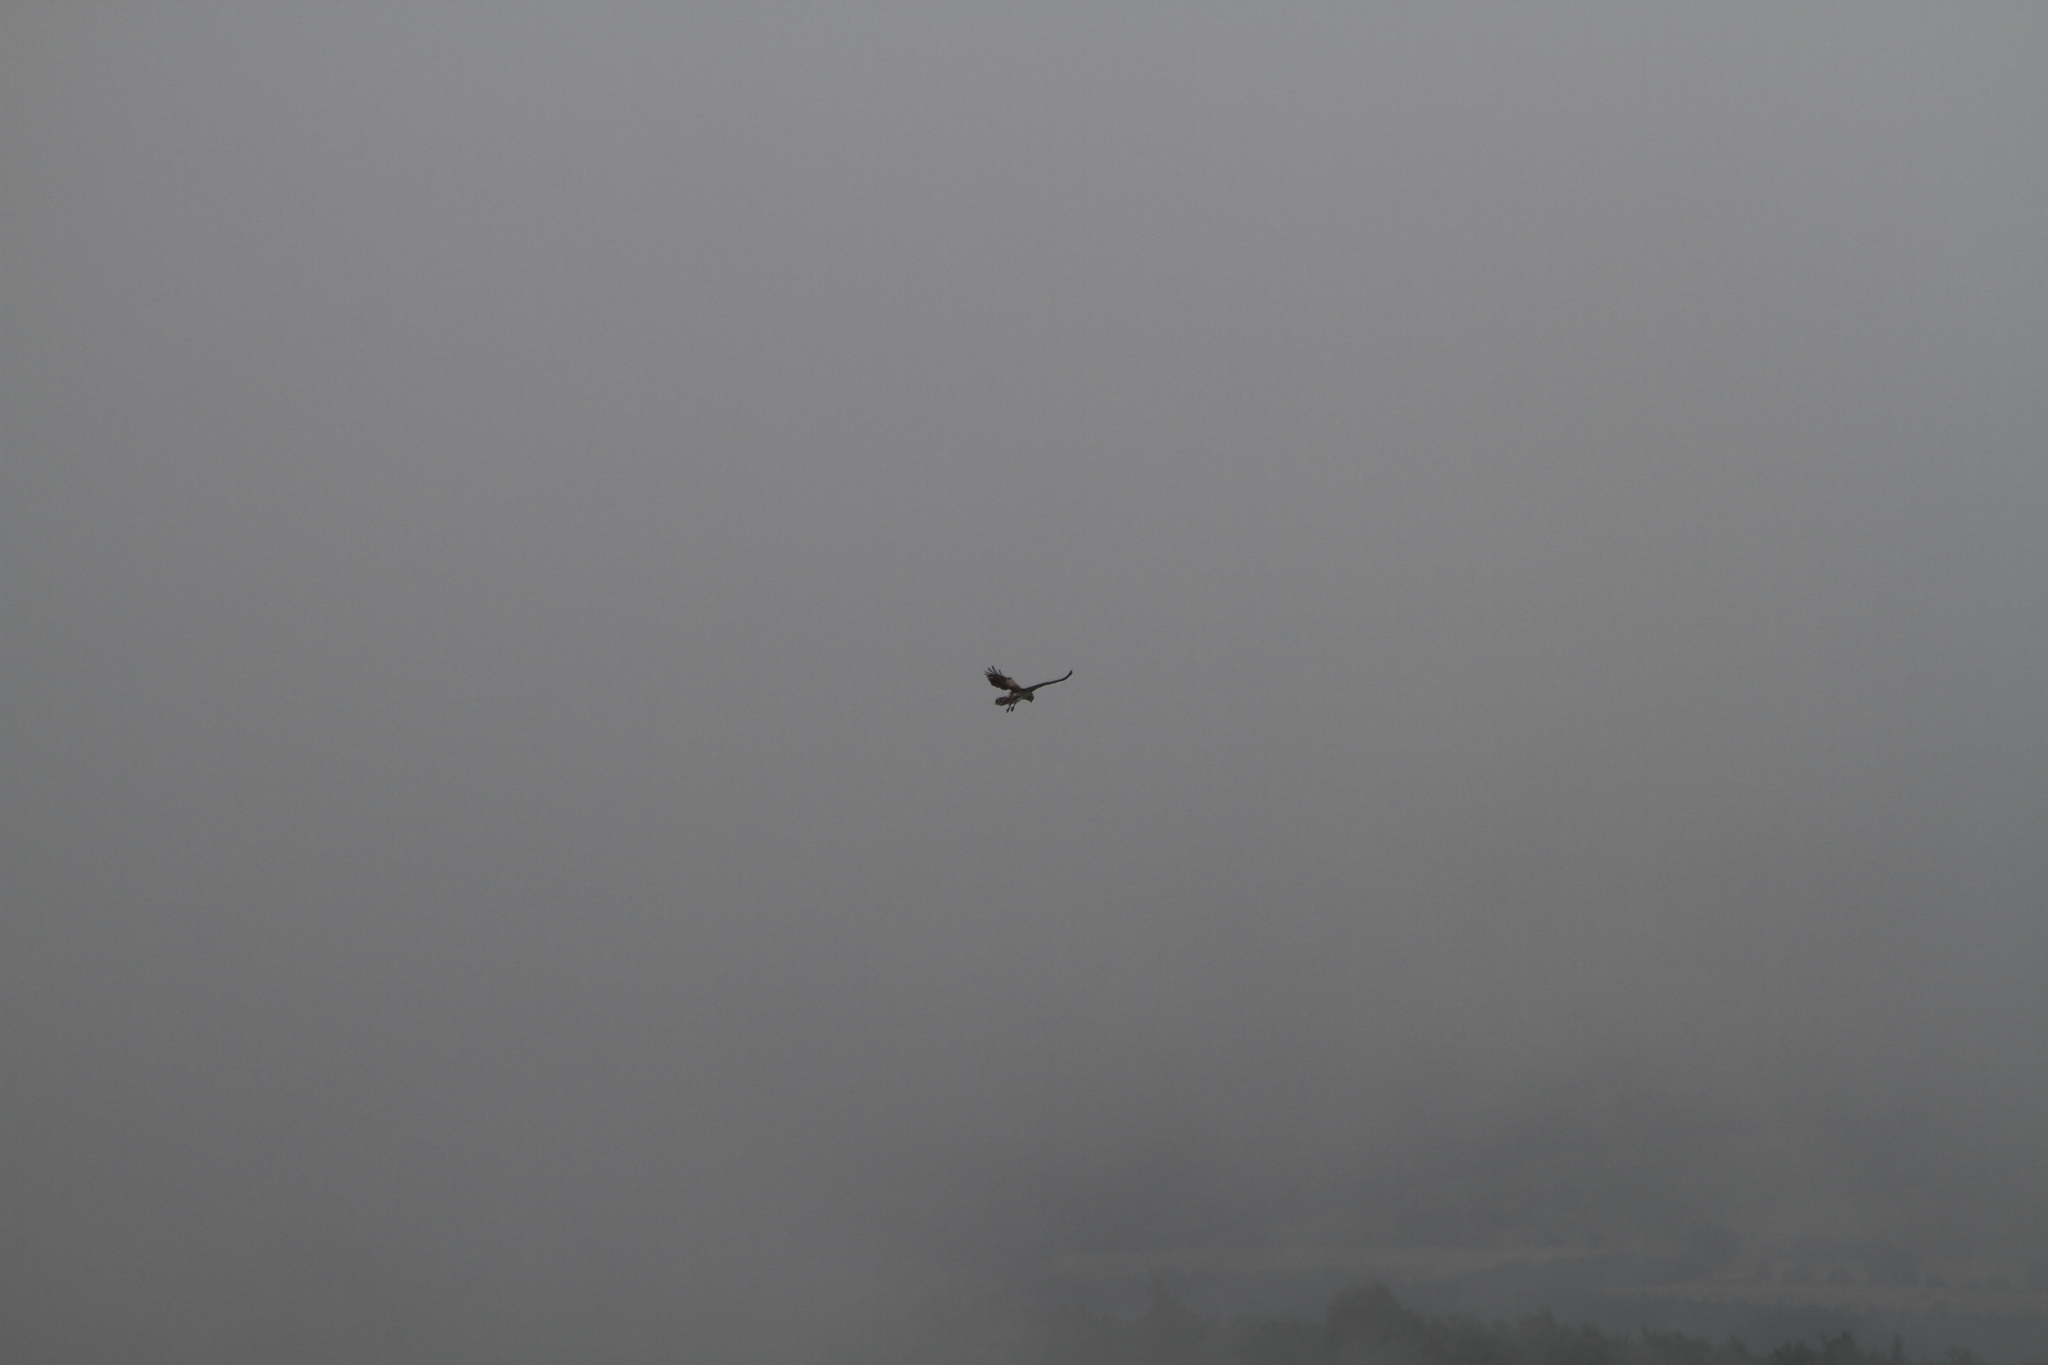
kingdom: Animalia
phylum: Chordata
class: Aves
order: Accipitriformes
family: Accipitridae
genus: Circaetus
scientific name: Circaetus gallicus
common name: Short-toed snake eagle
